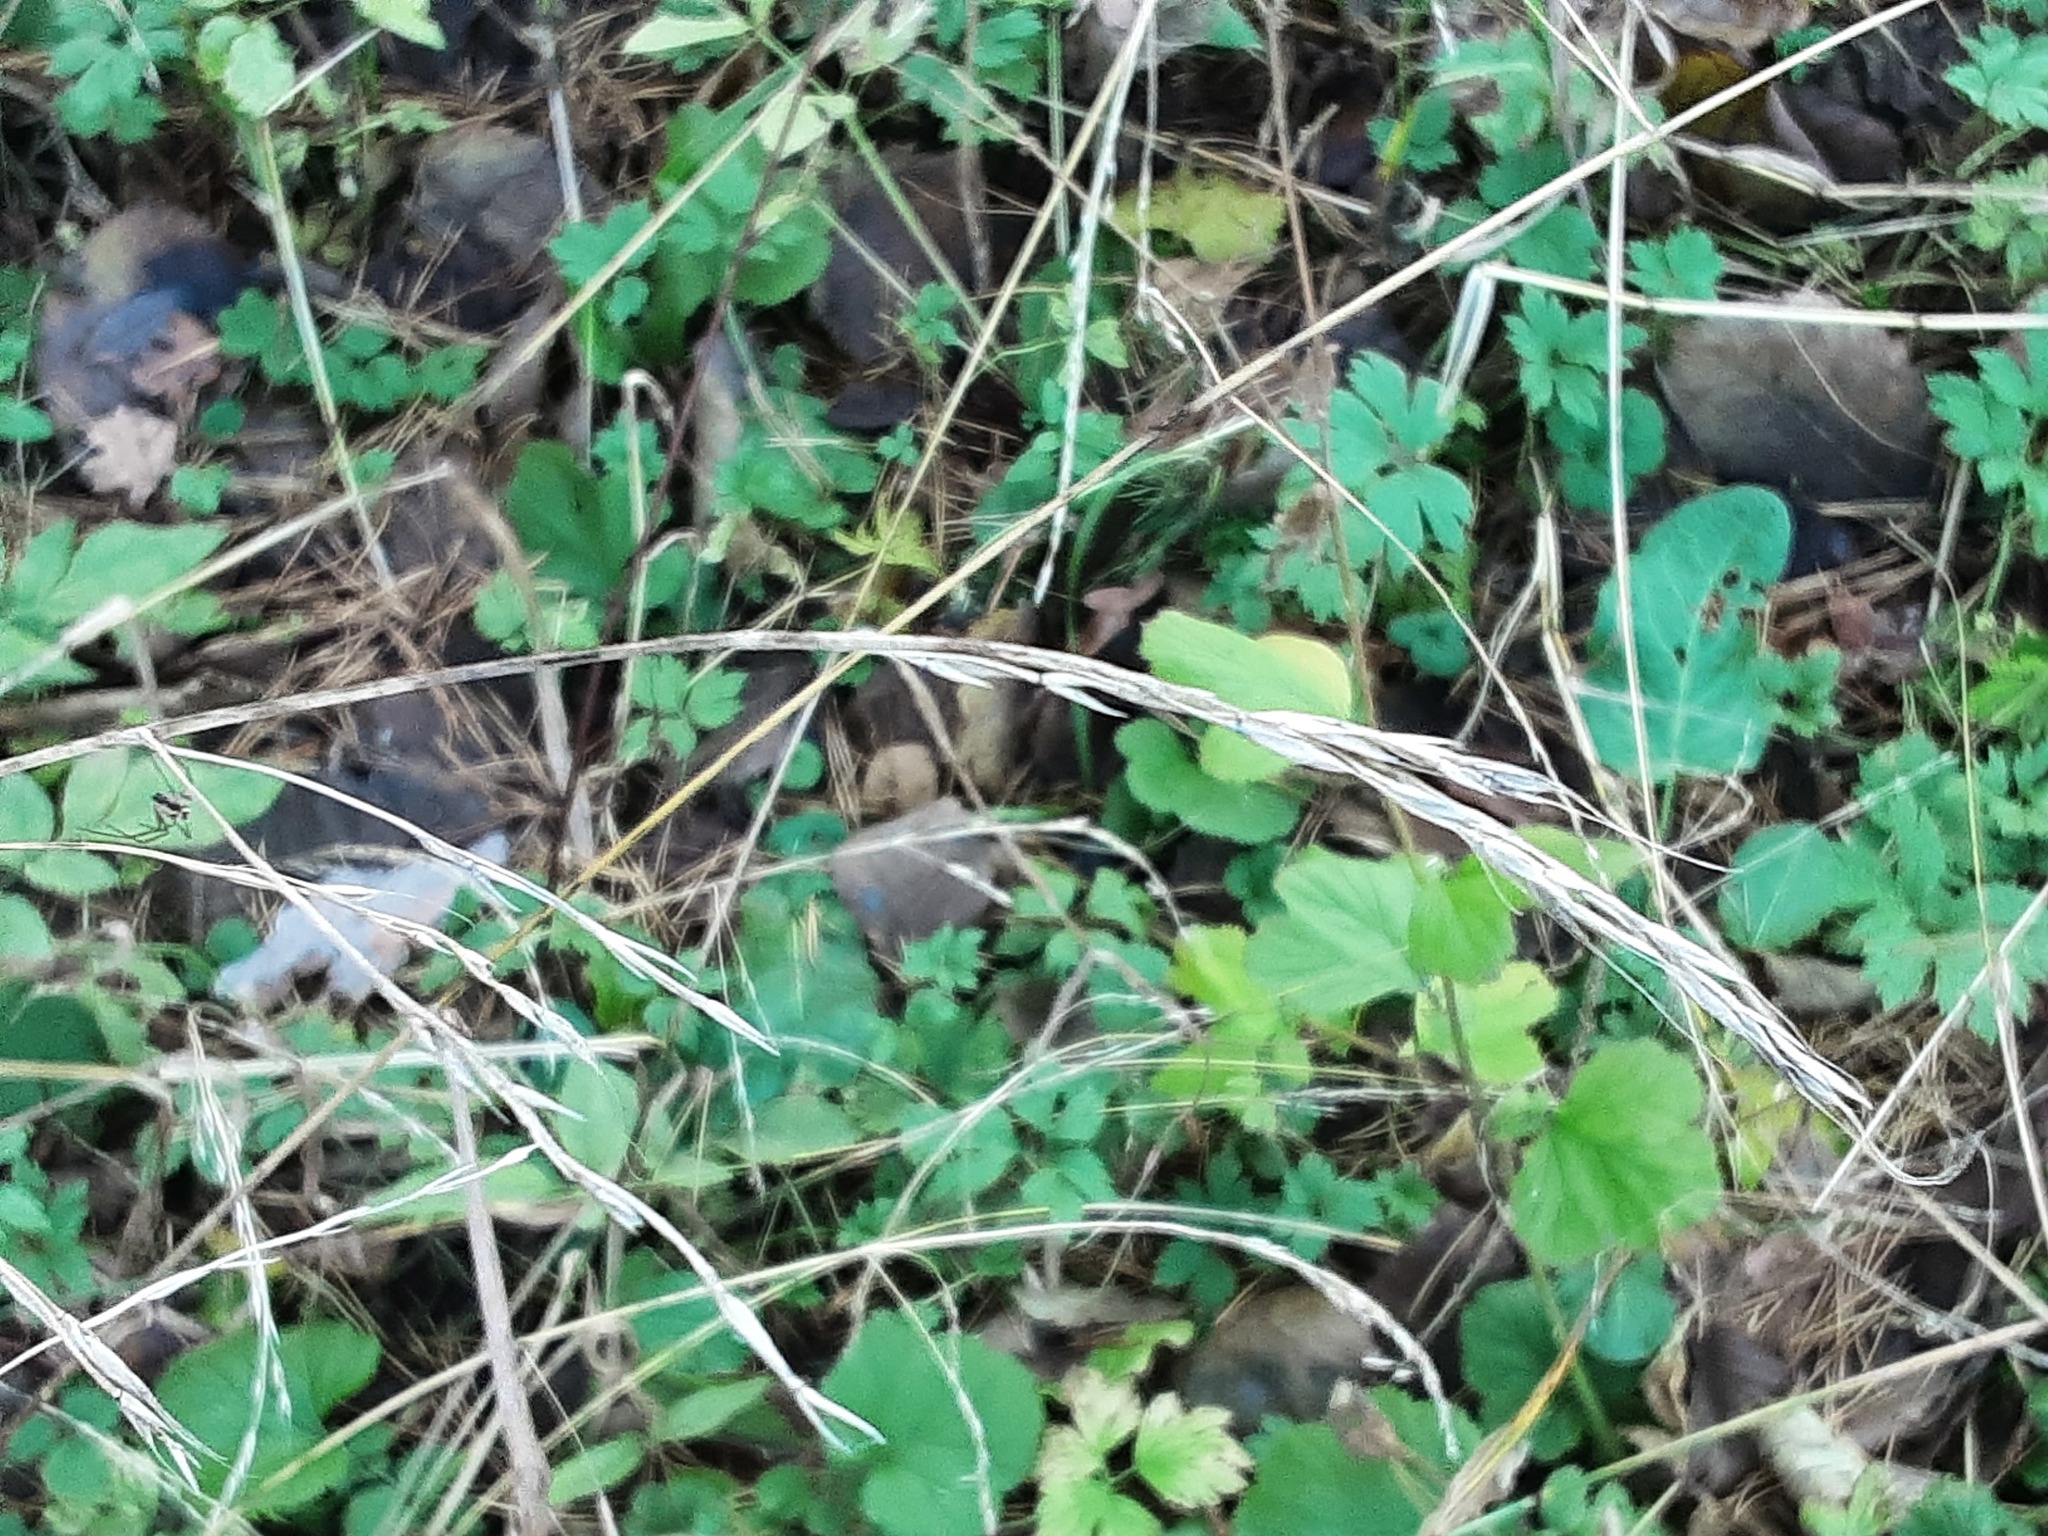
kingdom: Plantae
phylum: Tracheophyta
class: Liliopsida
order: Poales
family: Poaceae
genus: Lolium
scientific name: Lolium giganteum
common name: Giant fescue
